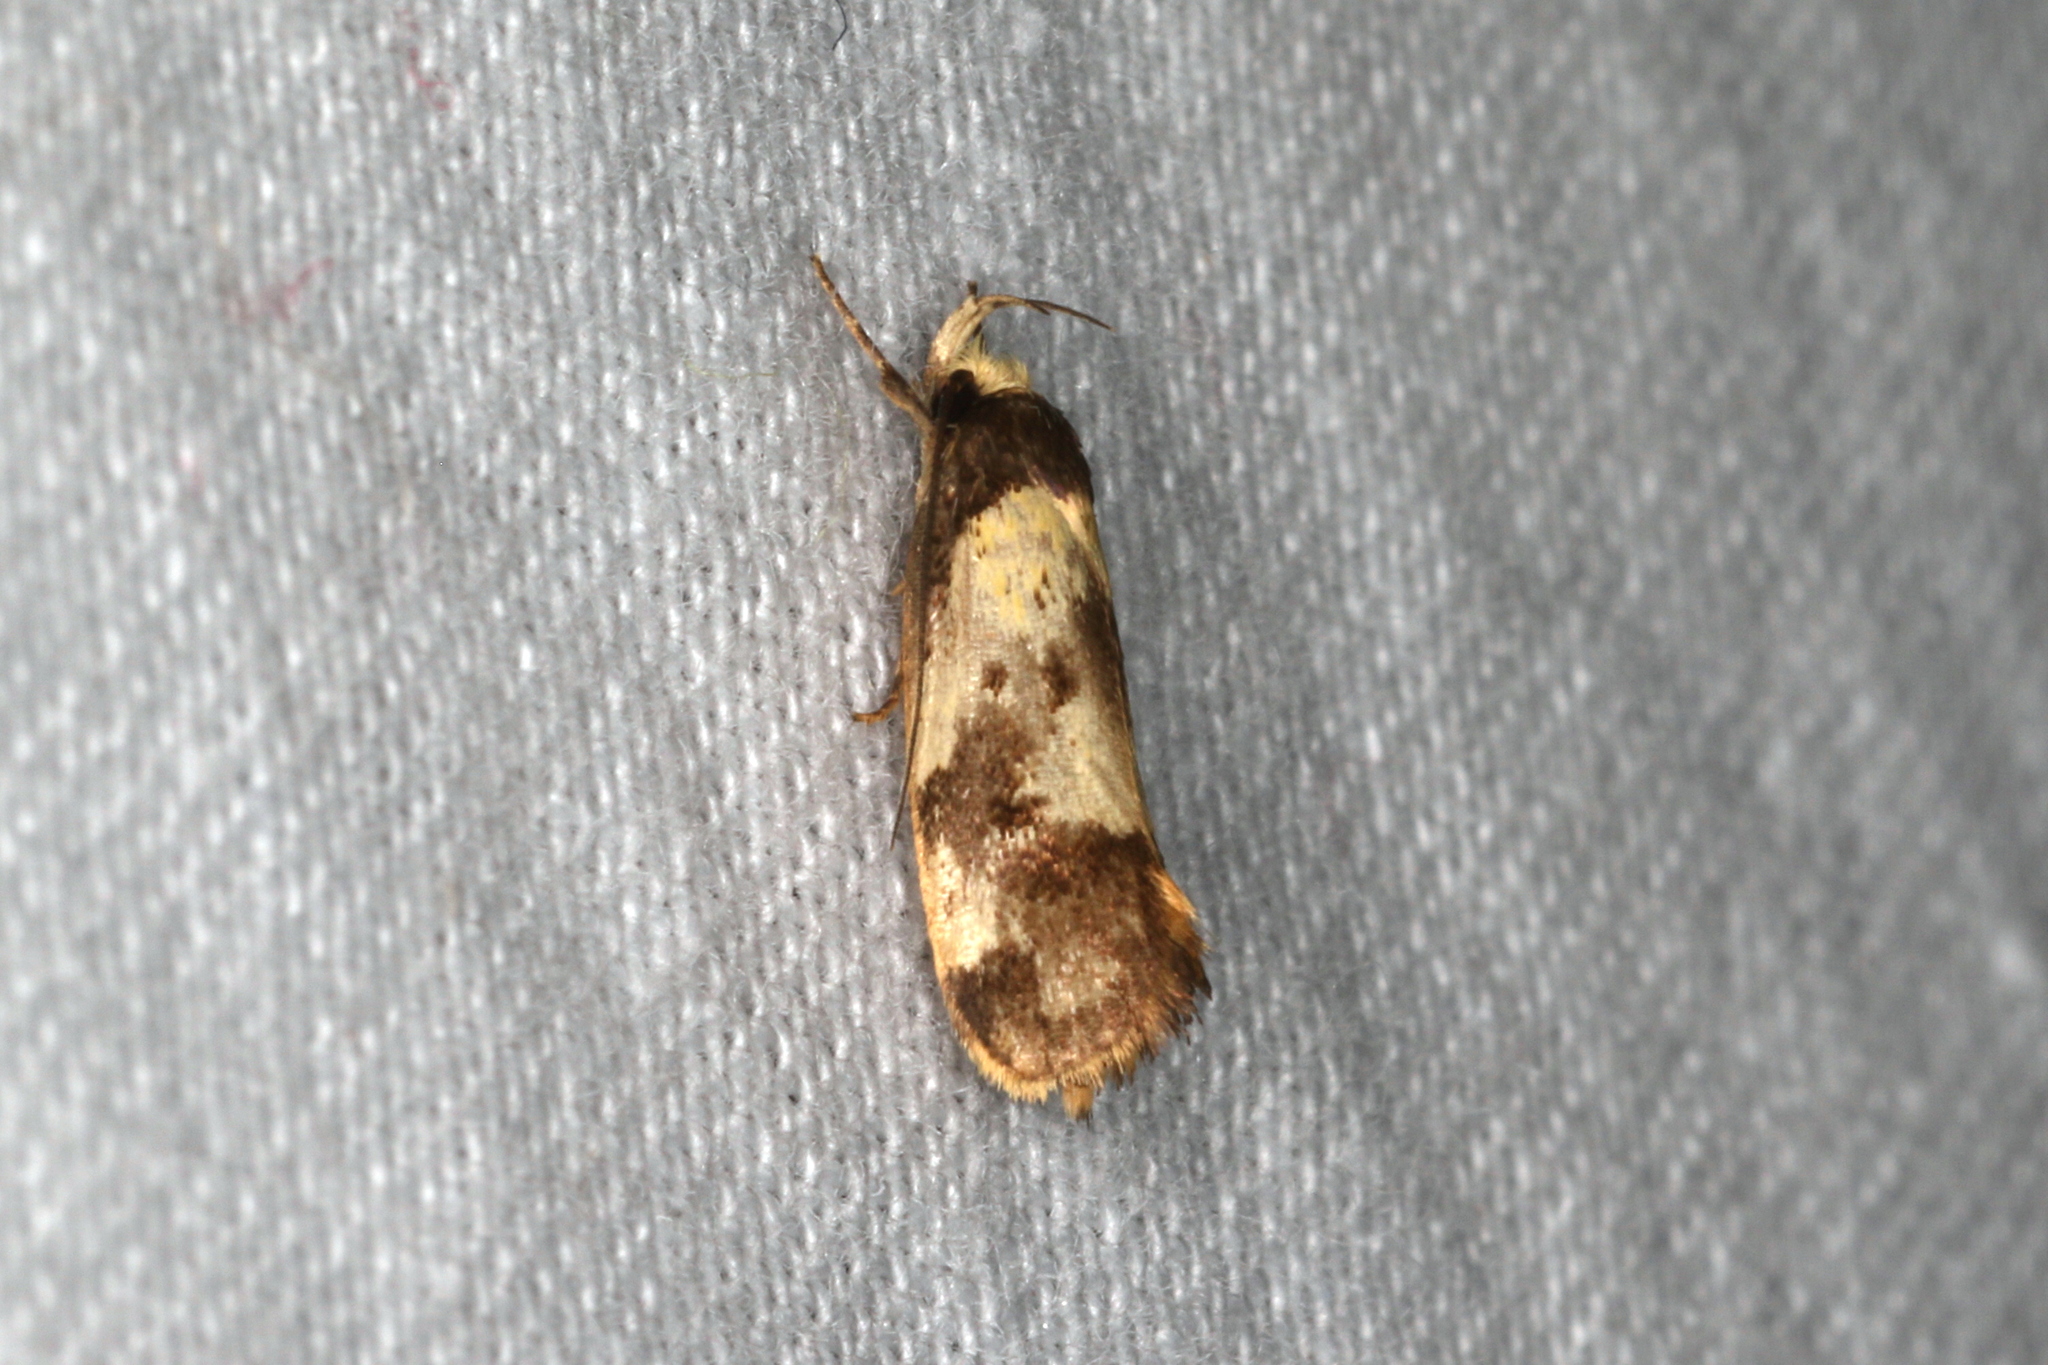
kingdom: Animalia
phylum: Arthropoda
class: Insecta
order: Lepidoptera
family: Oecophoridae
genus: Eulechria
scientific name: Eulechria marmorata
